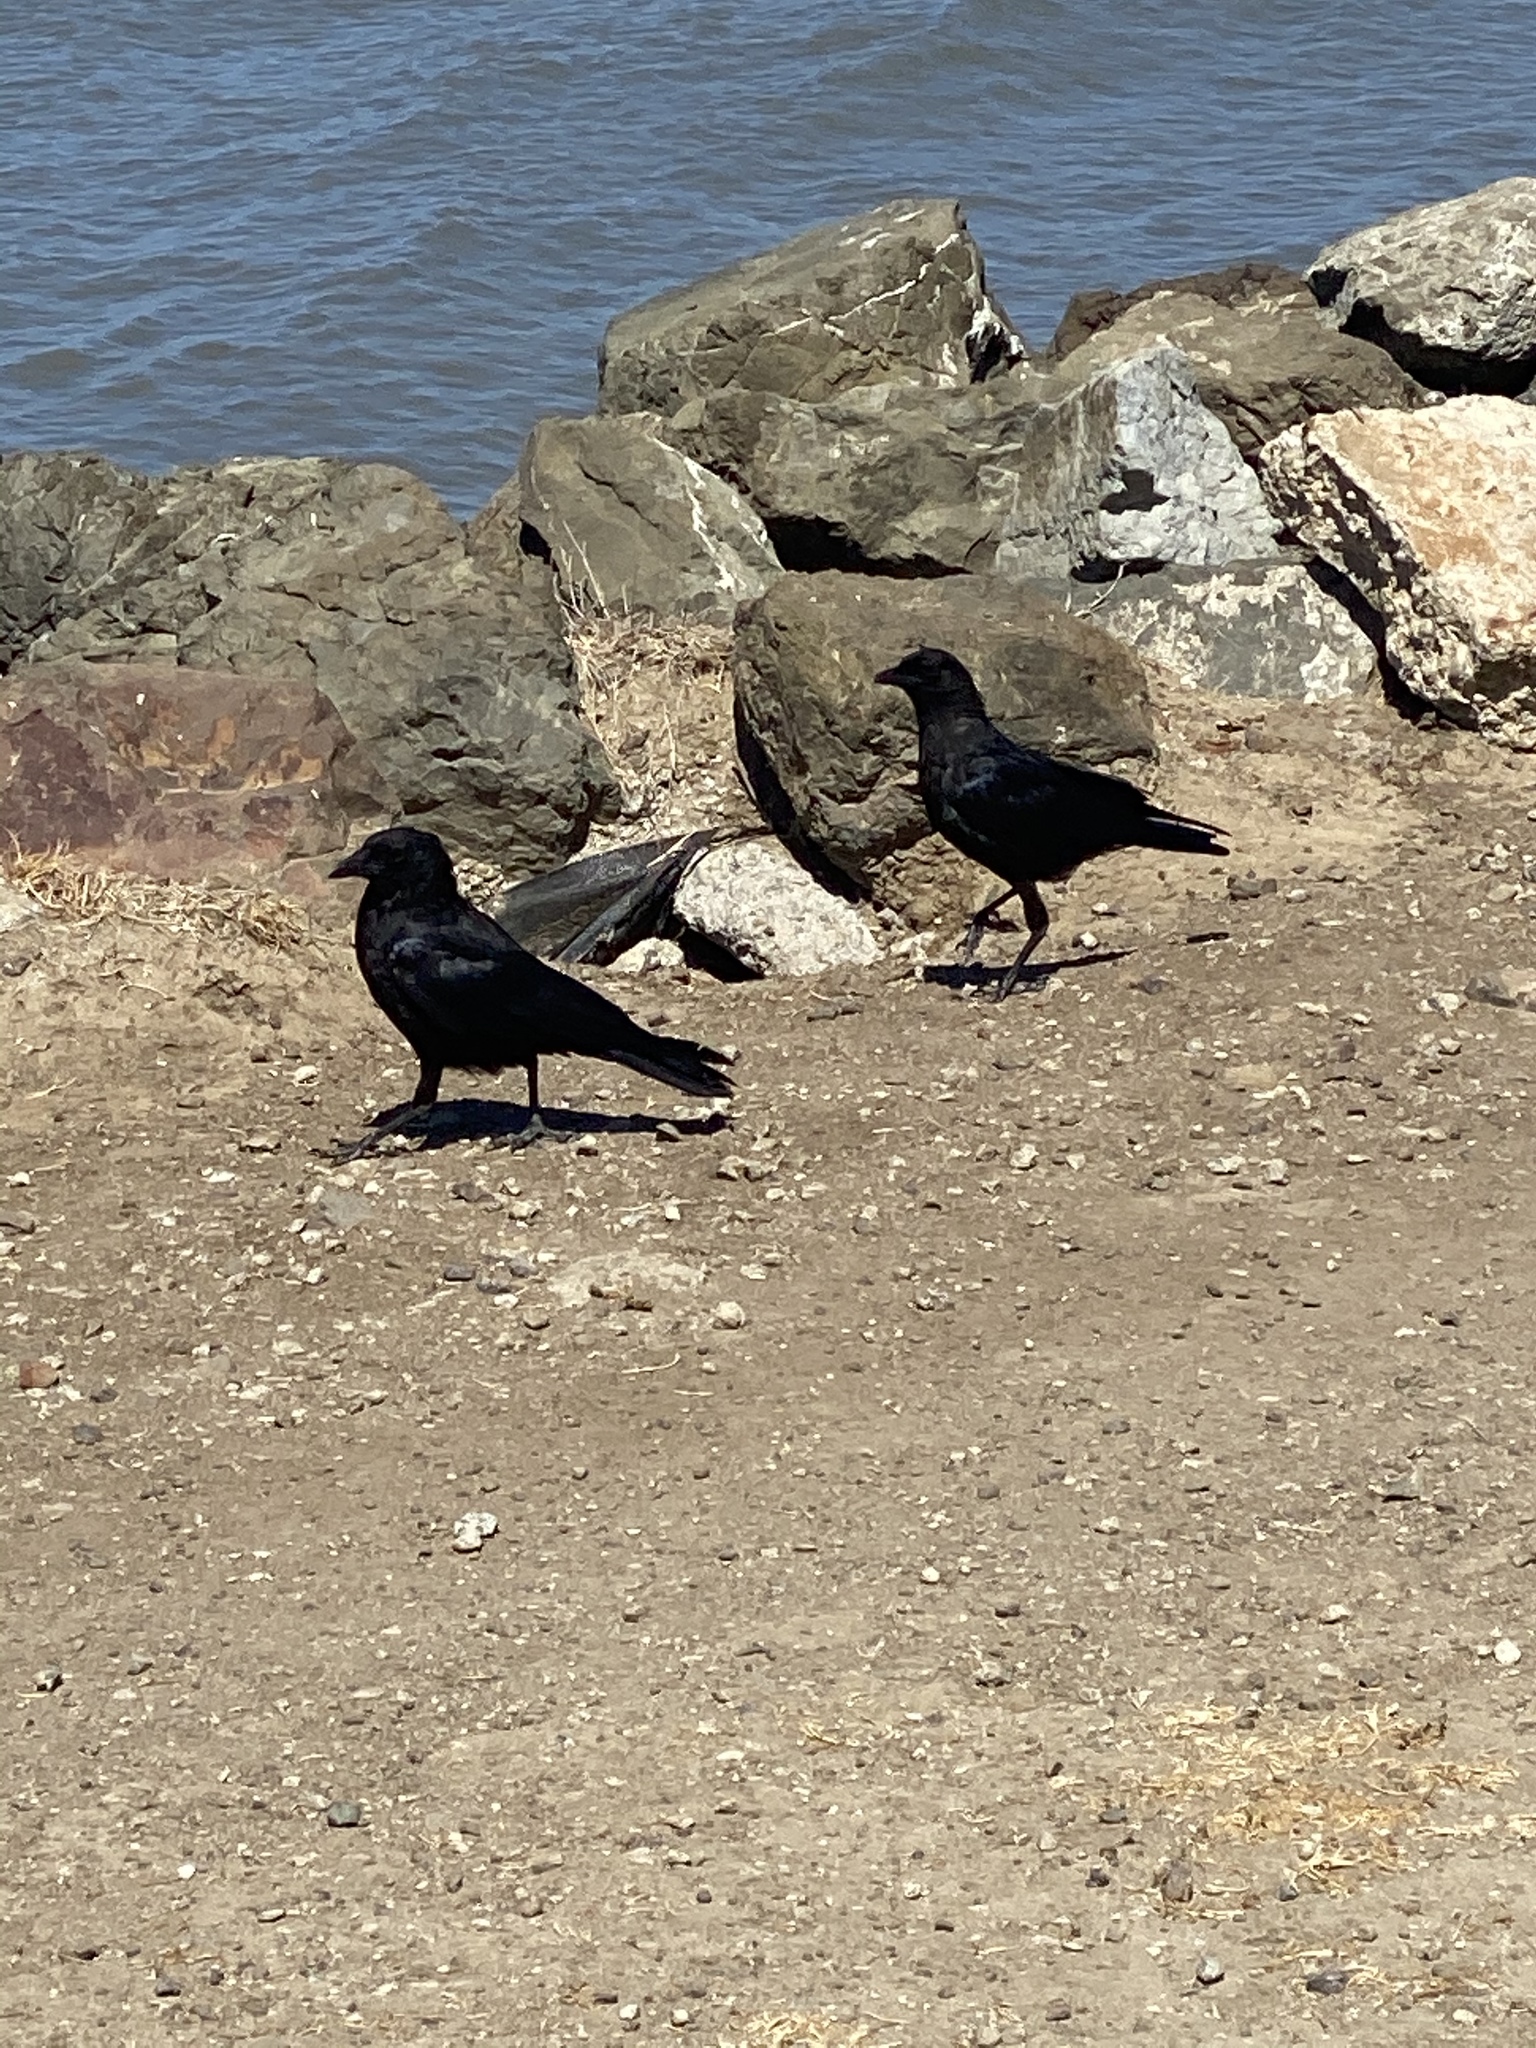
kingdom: Animalia
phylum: Chordata
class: Aves
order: Passeriformes
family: Corvidae
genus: Corvus
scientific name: Corvus brachyrhynchos
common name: American crow
